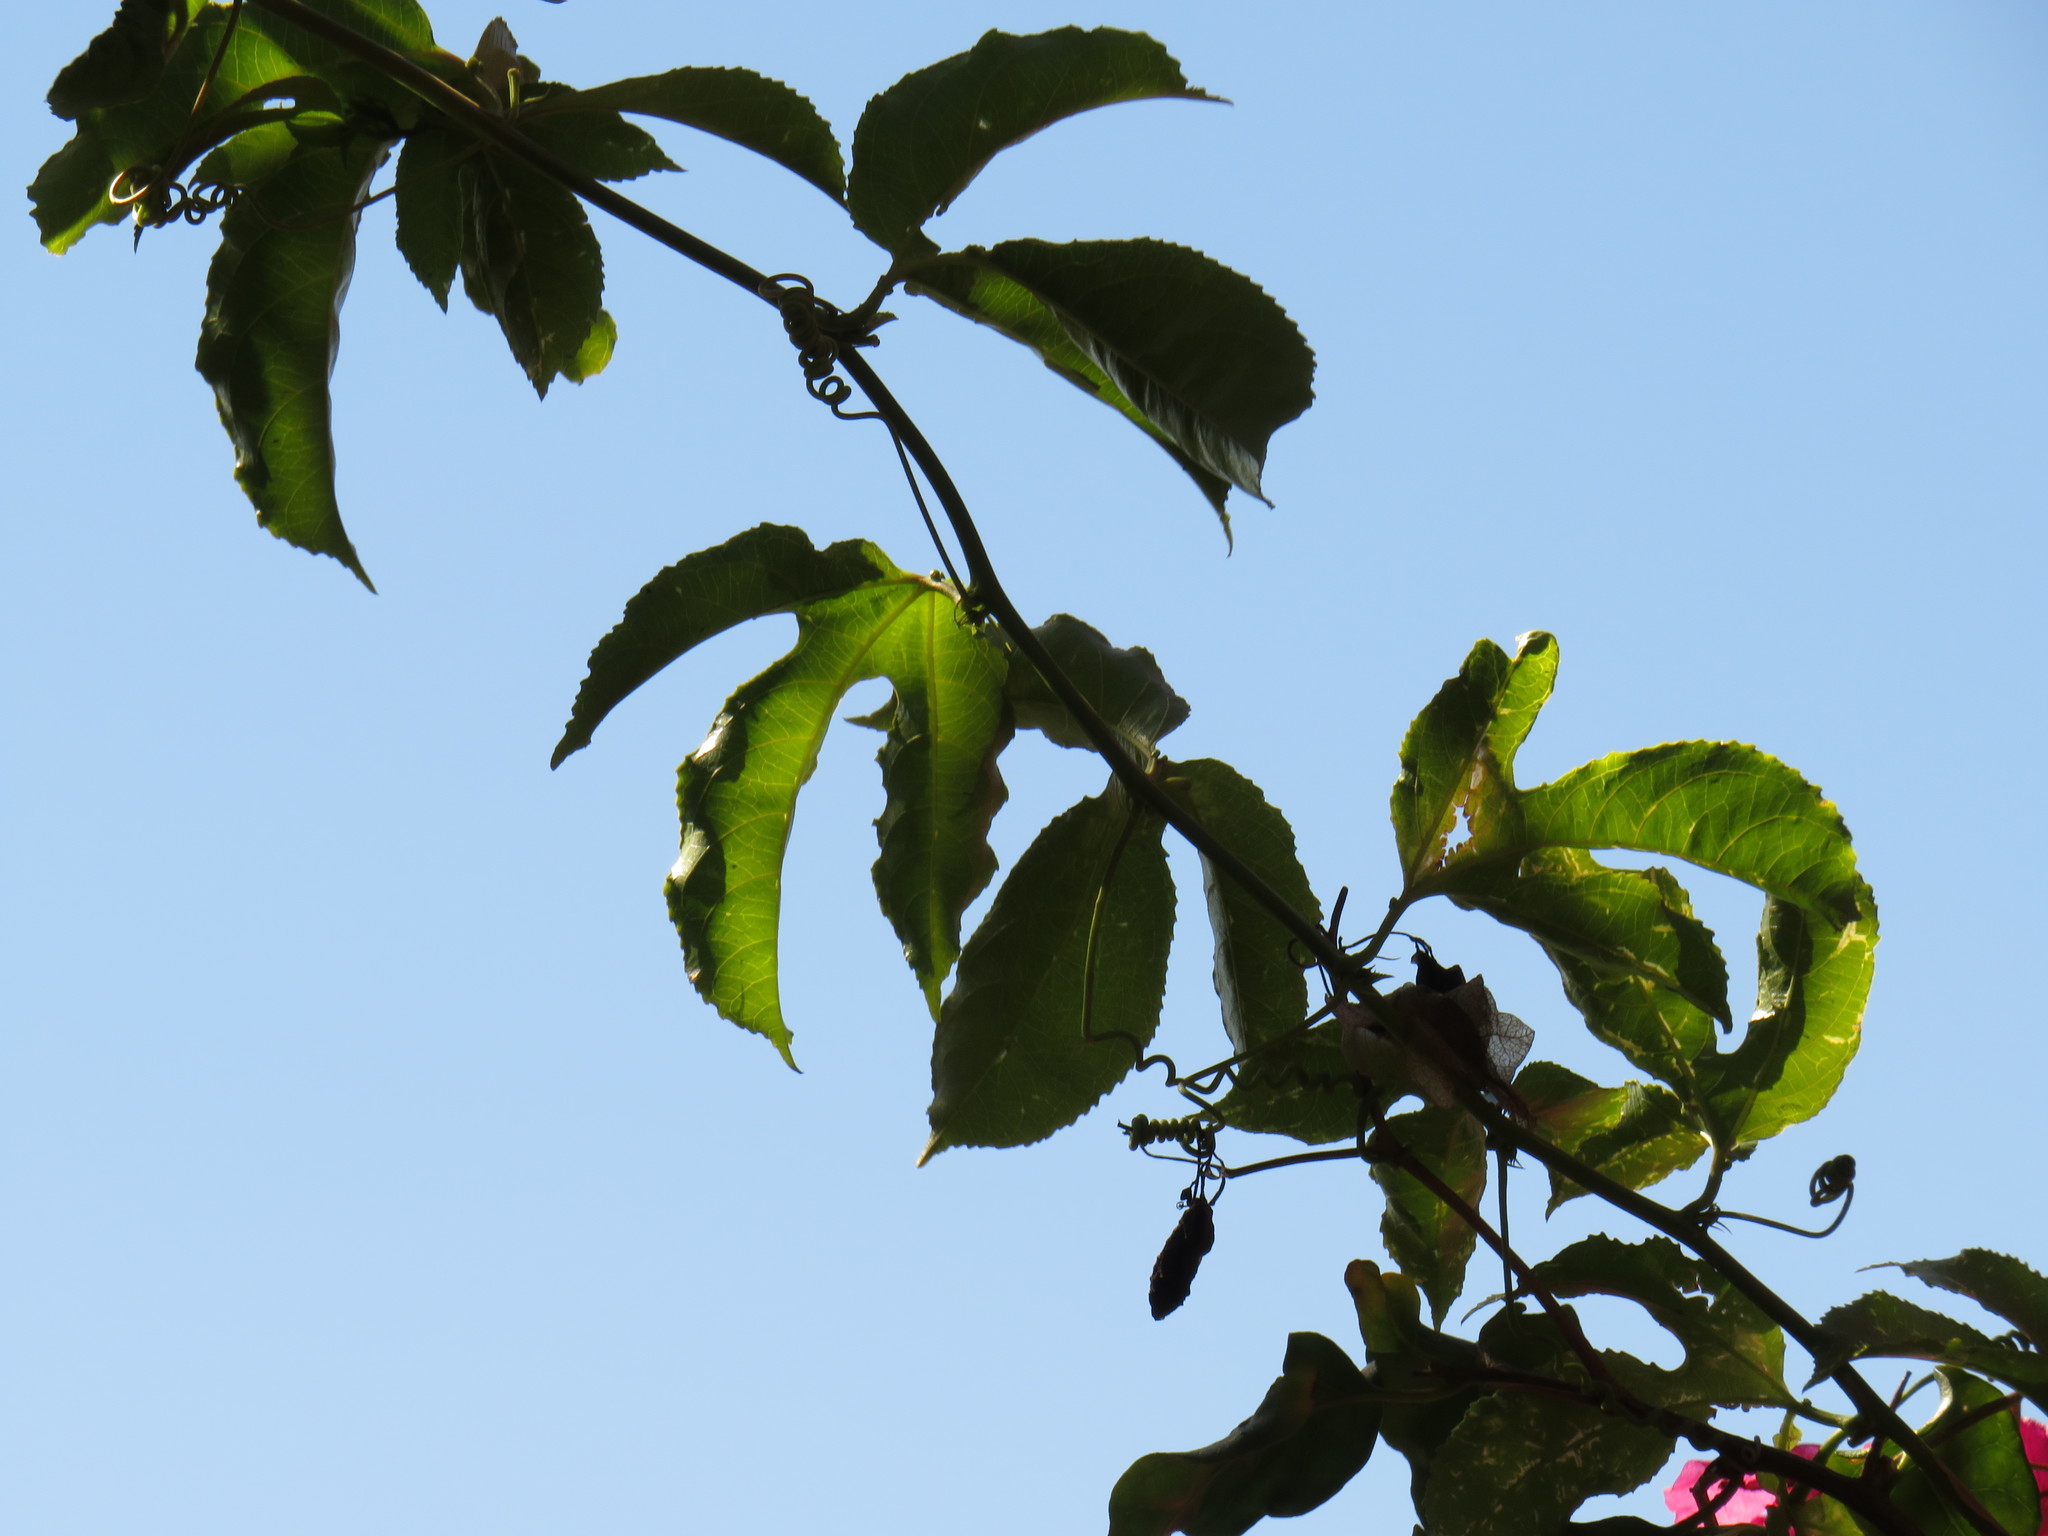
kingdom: Plantae
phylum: Tracheophyta
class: Magnoliopsida
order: Malpighiales
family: Passifloraceae
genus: Passiflora
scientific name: Passiflora edulis
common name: Purple granadilla
